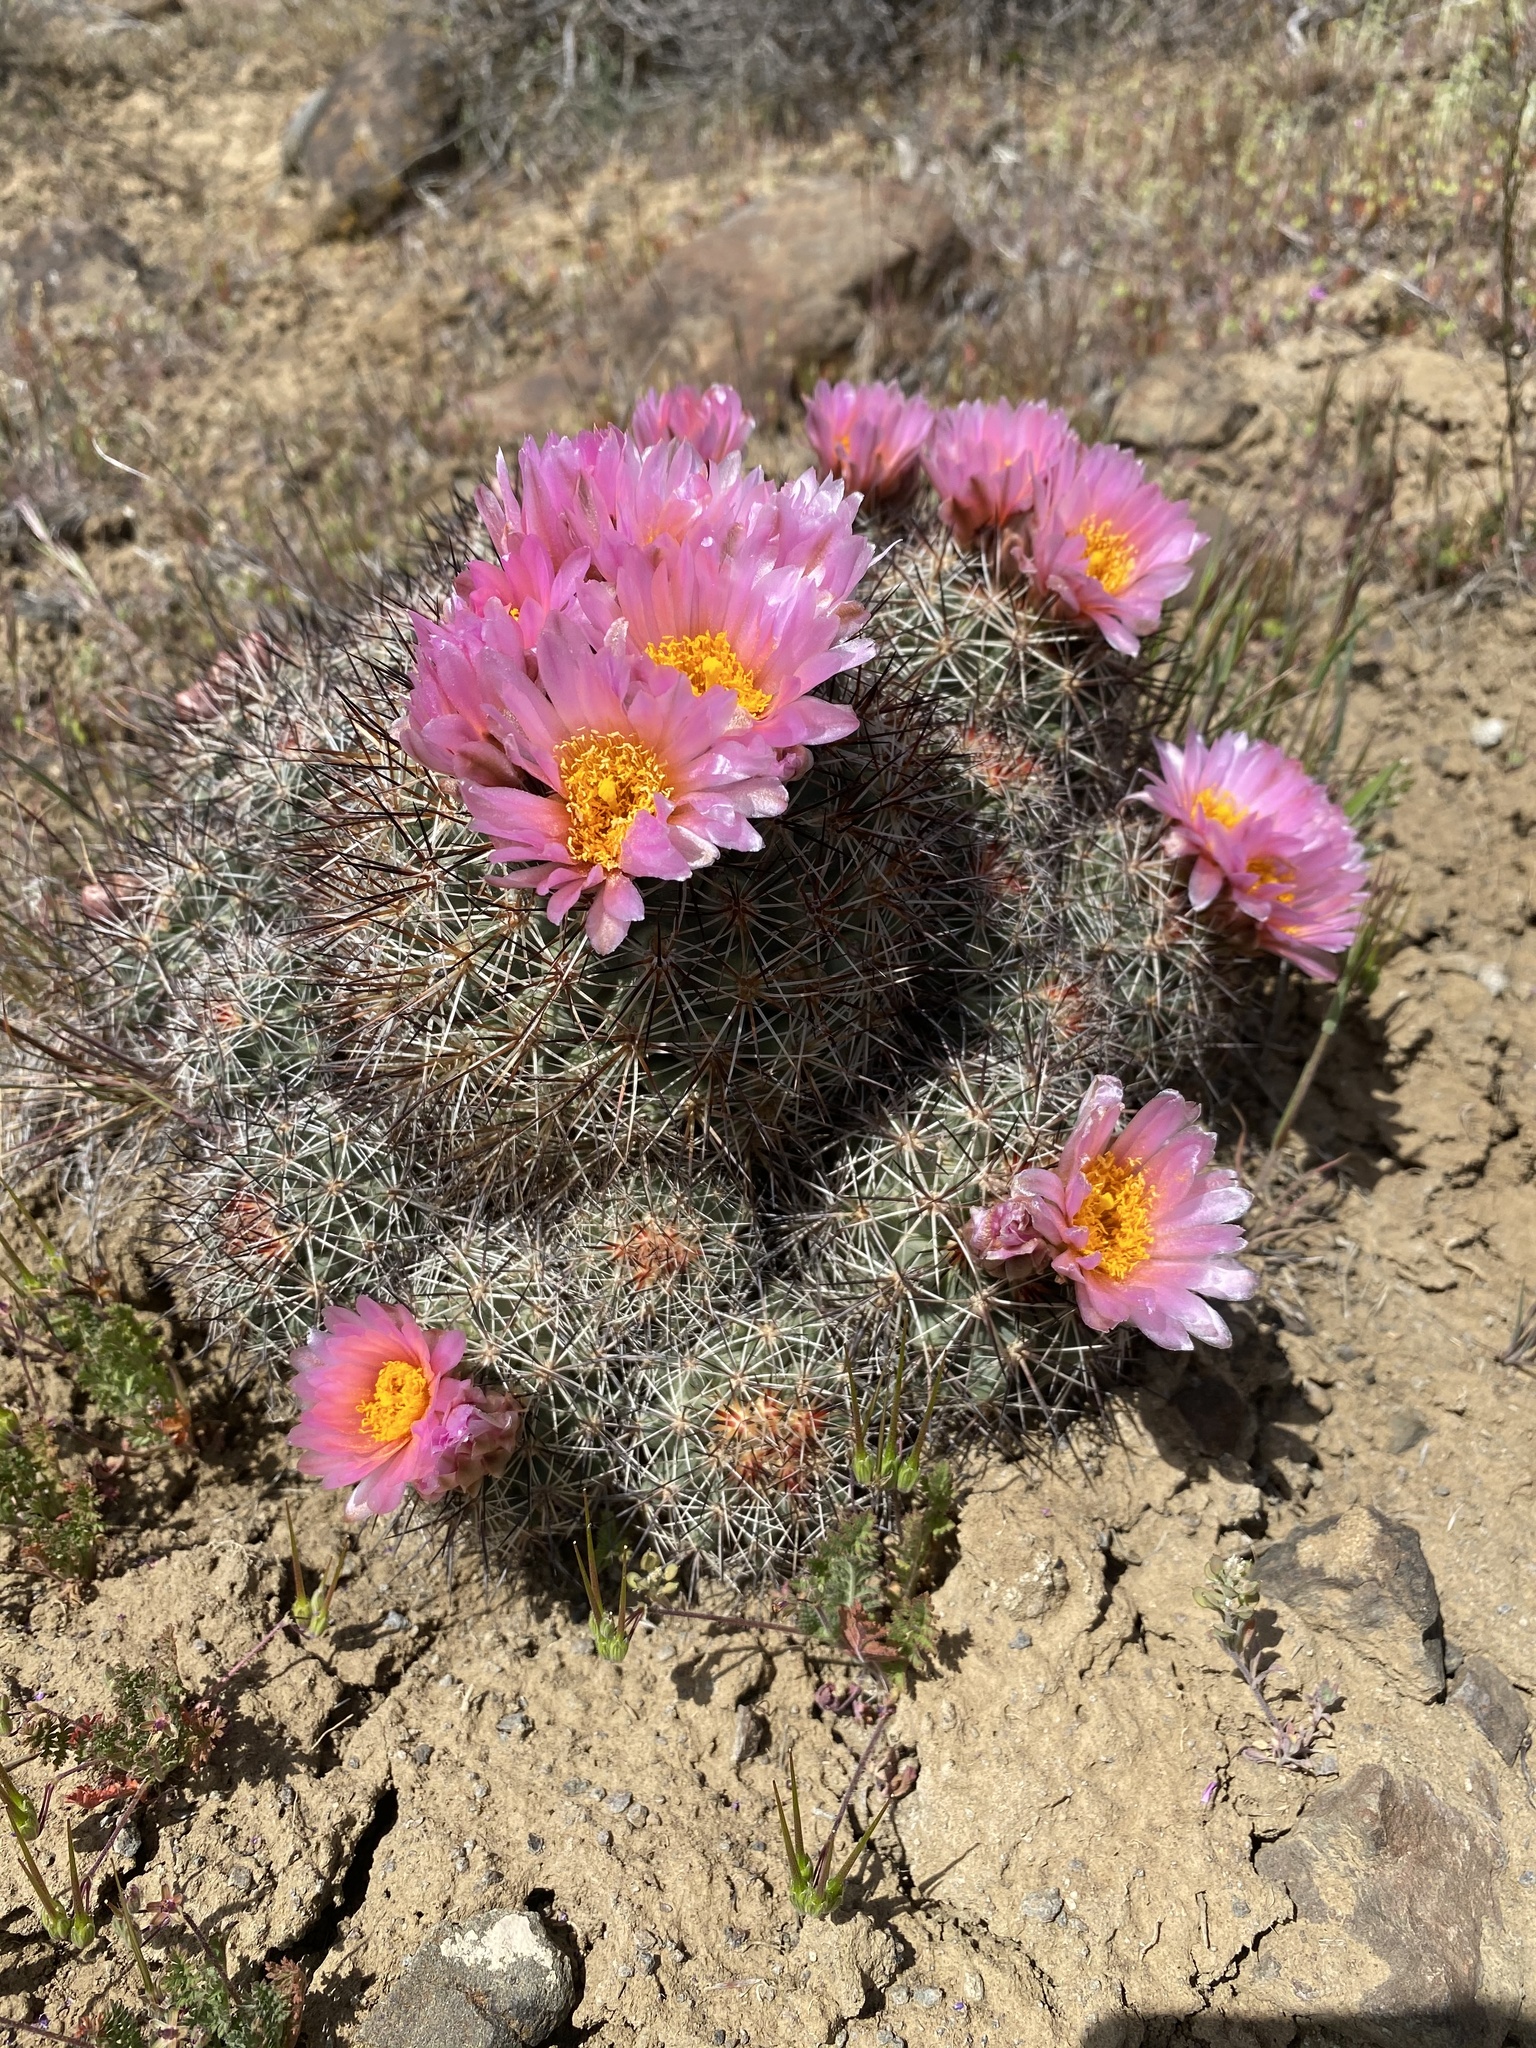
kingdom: Plantae
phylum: Tracheophyta
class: Magnoliopsida
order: Caryophyllales
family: Cactaceae
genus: Pediocactus
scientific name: Pediocactus nigrispinus
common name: Simpson's hedgehog cactus
